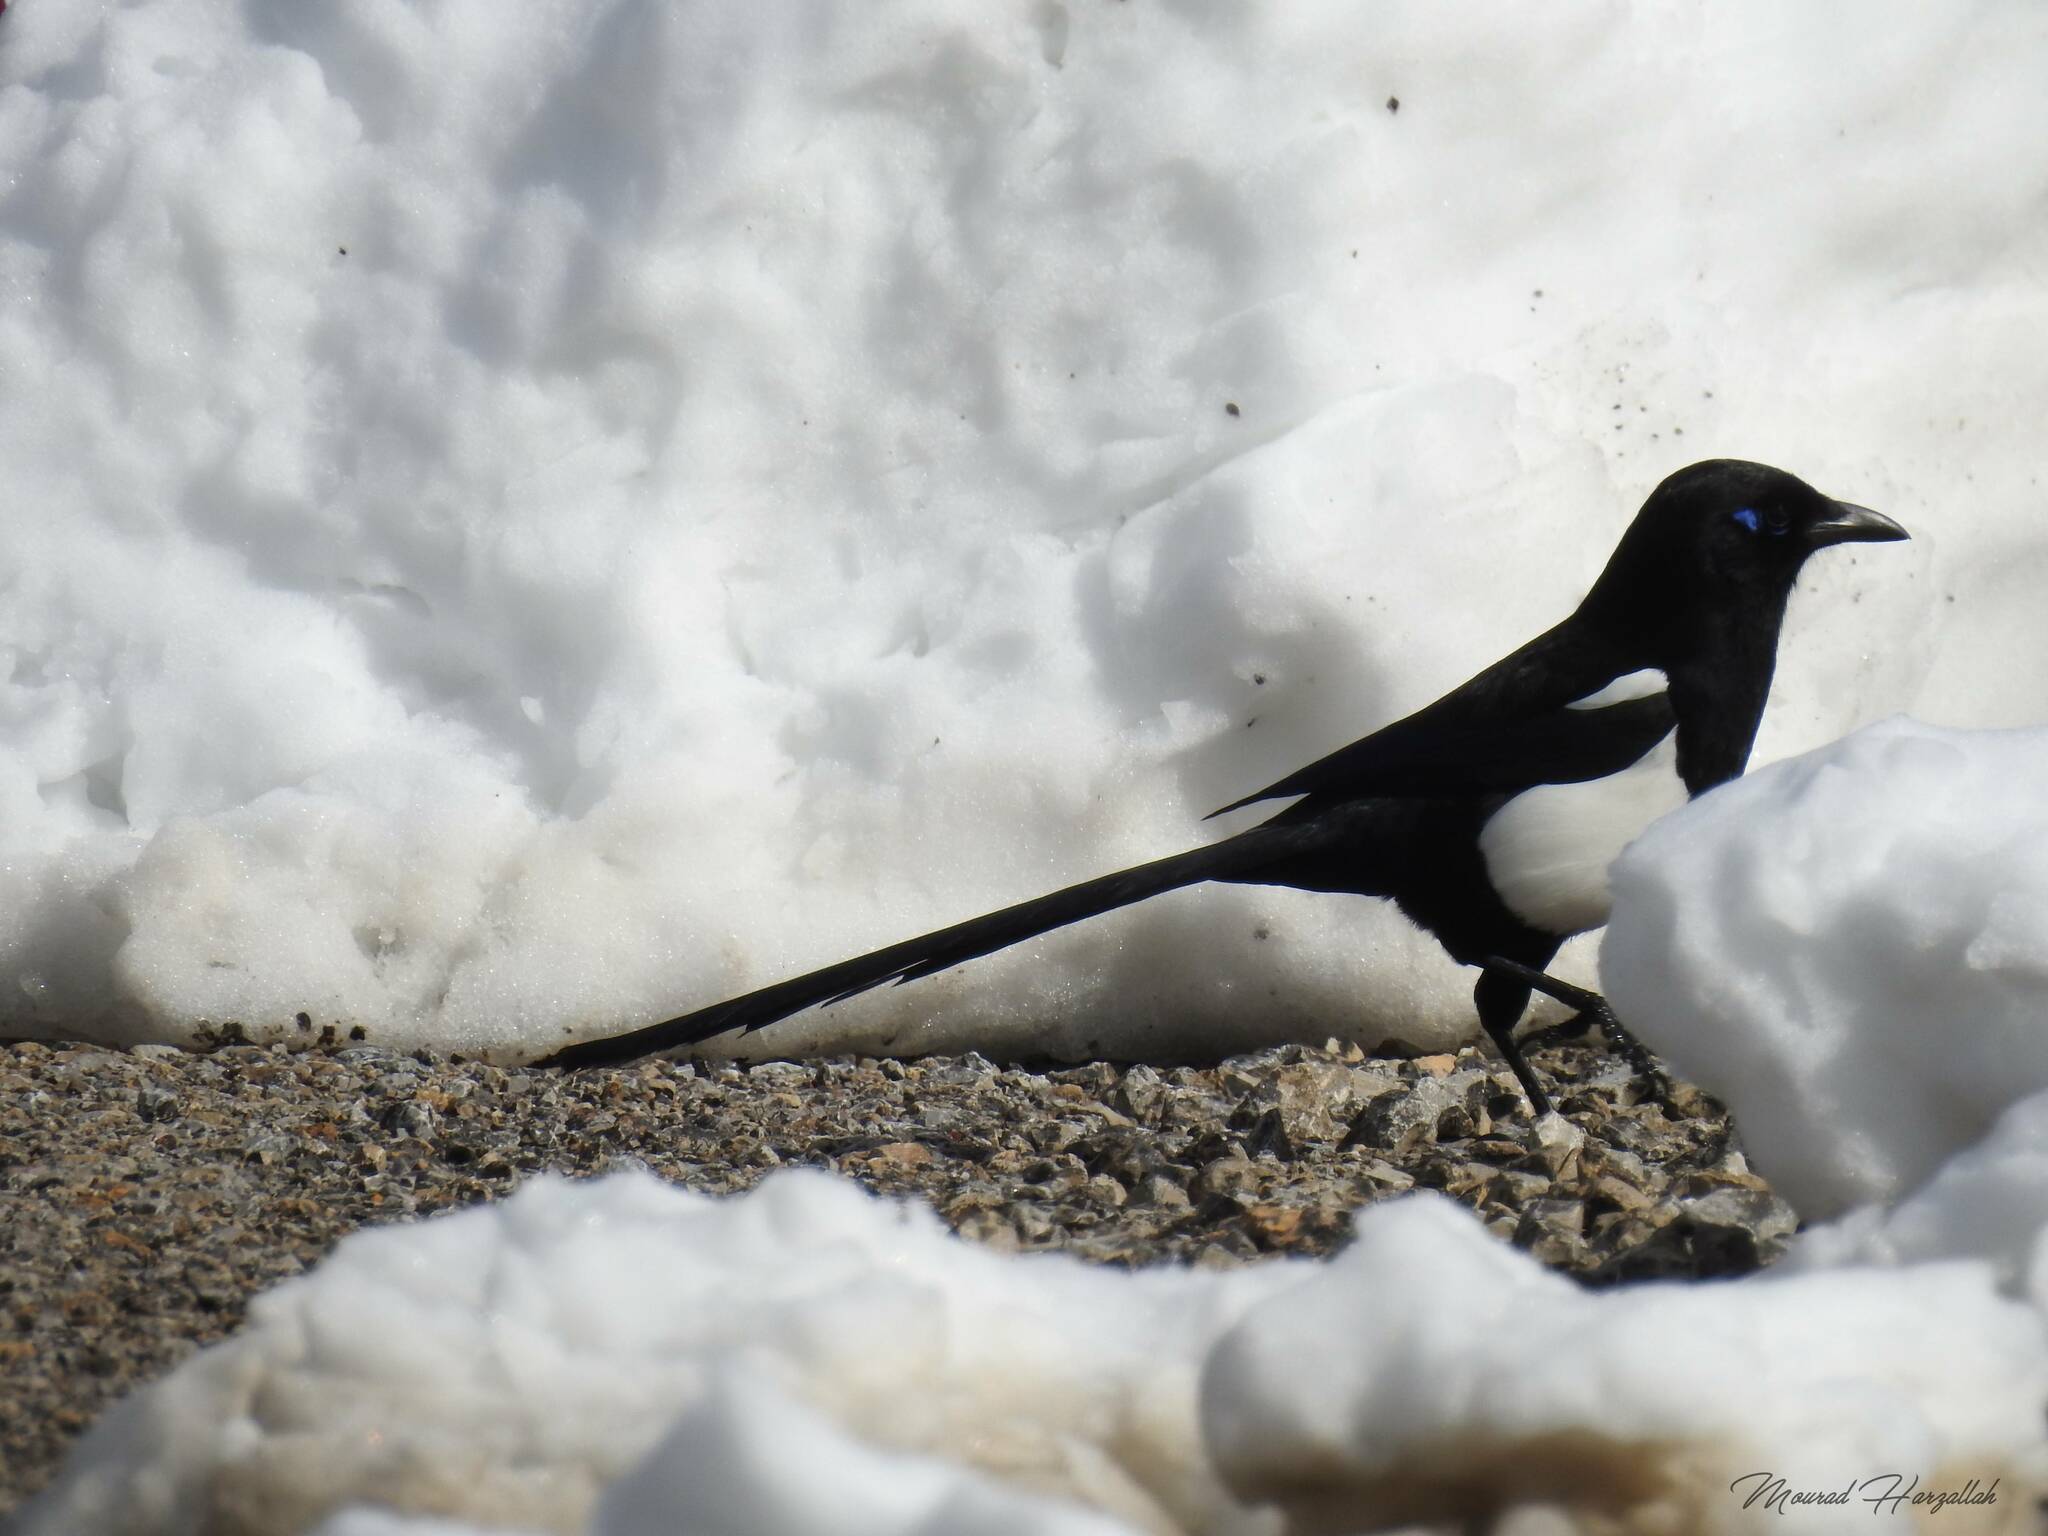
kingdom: Animalia
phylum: Chordata
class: Aves
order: Passeriformes
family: Corvidae
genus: Pica
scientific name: Pica mauritanica
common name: Maghreb magpie
